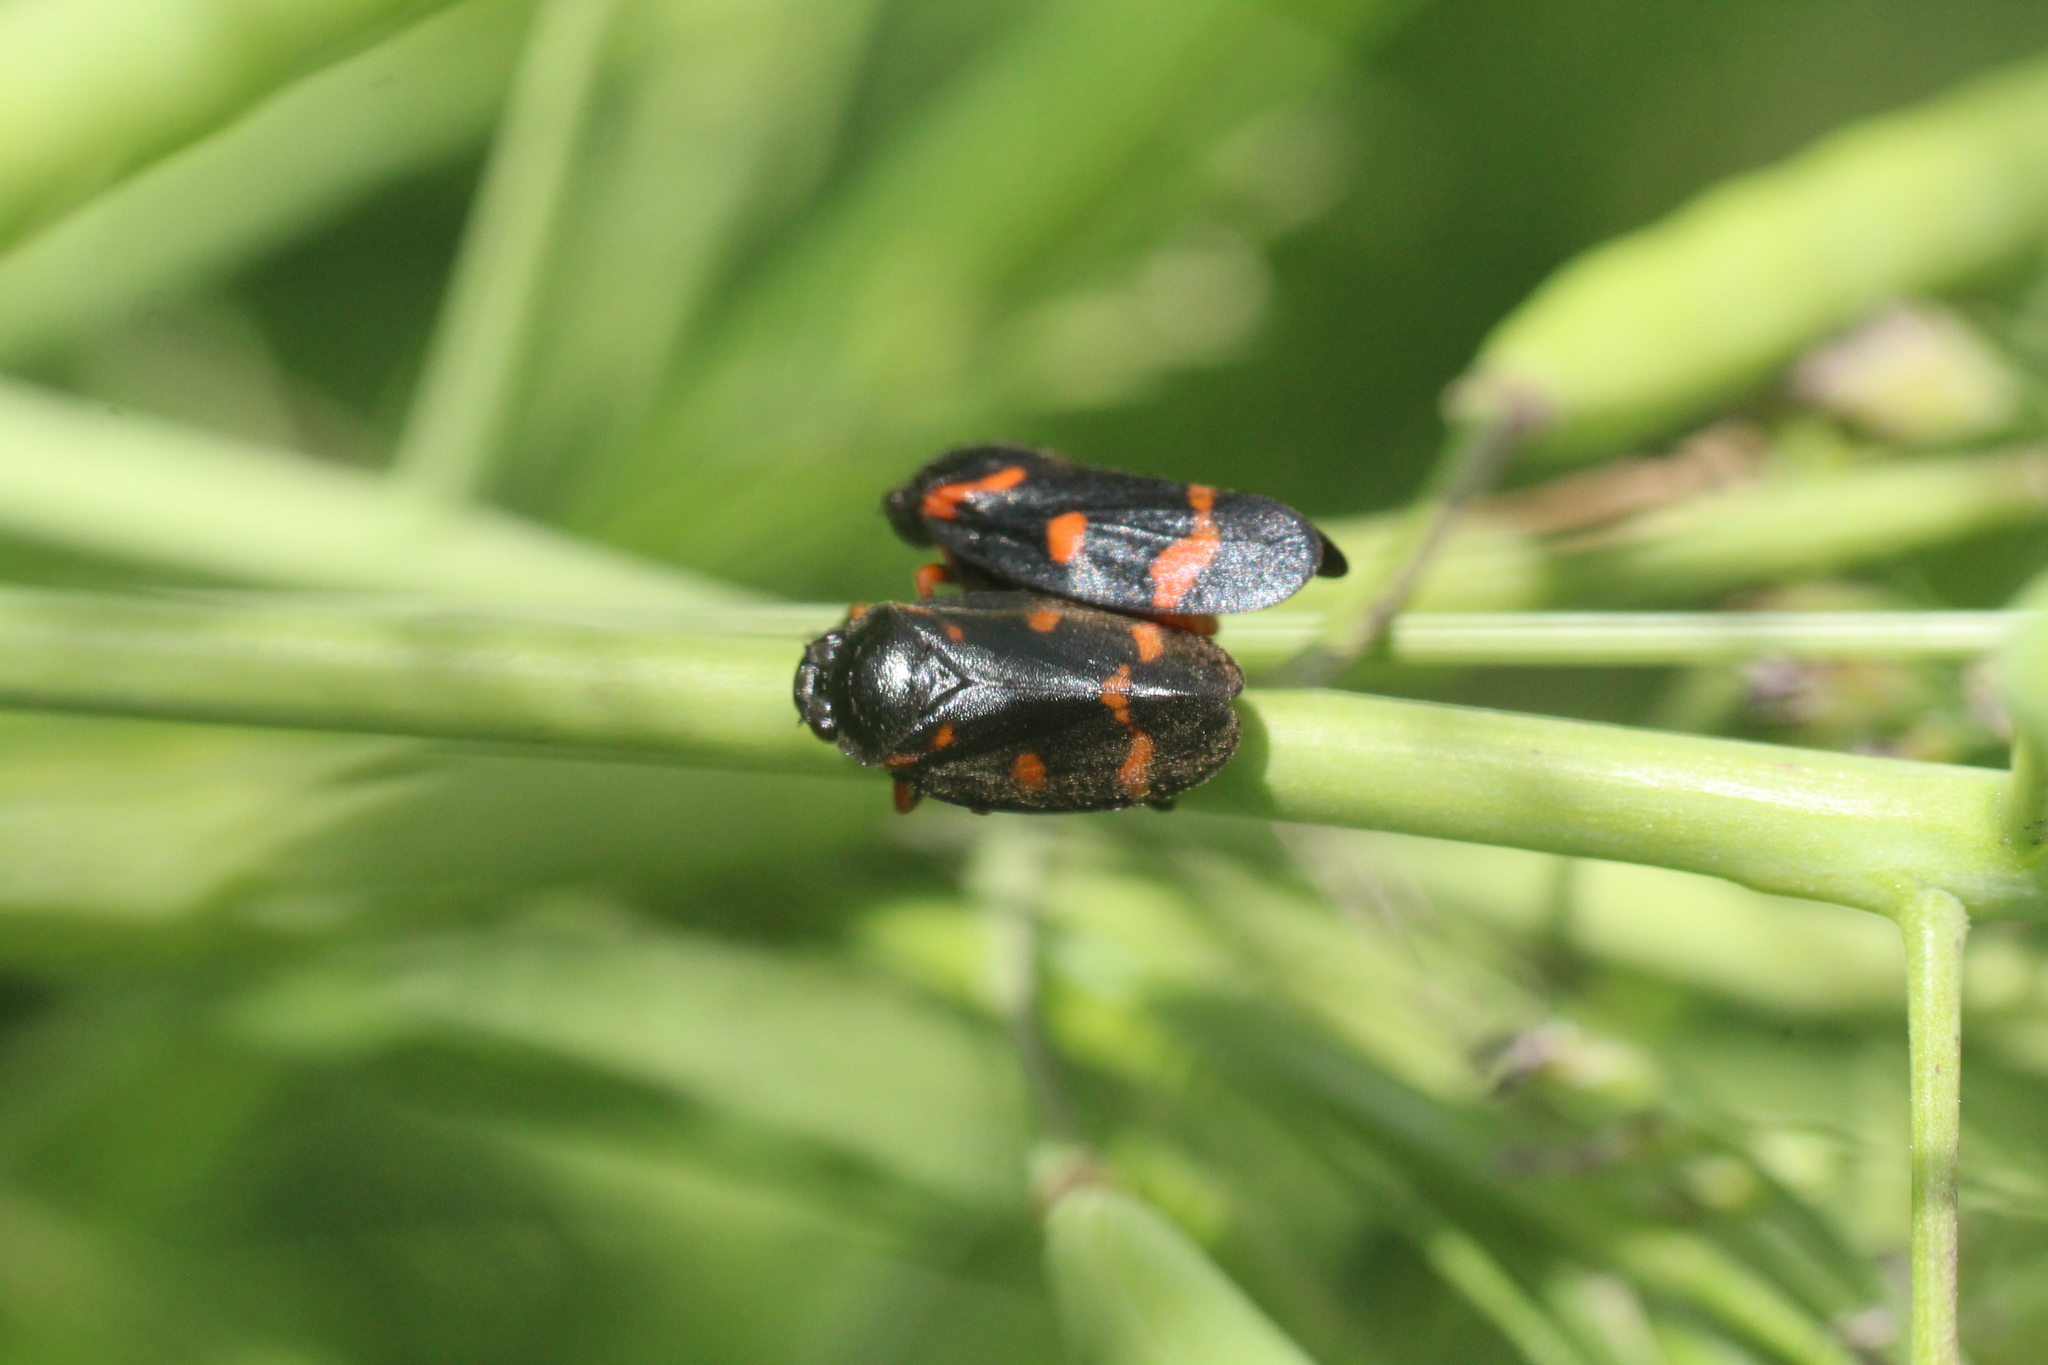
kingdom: Animalia
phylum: Arthropoda
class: Insecta
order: Hemiptera
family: Cercopidae
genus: Cercopis
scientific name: Cercopis intermedia
